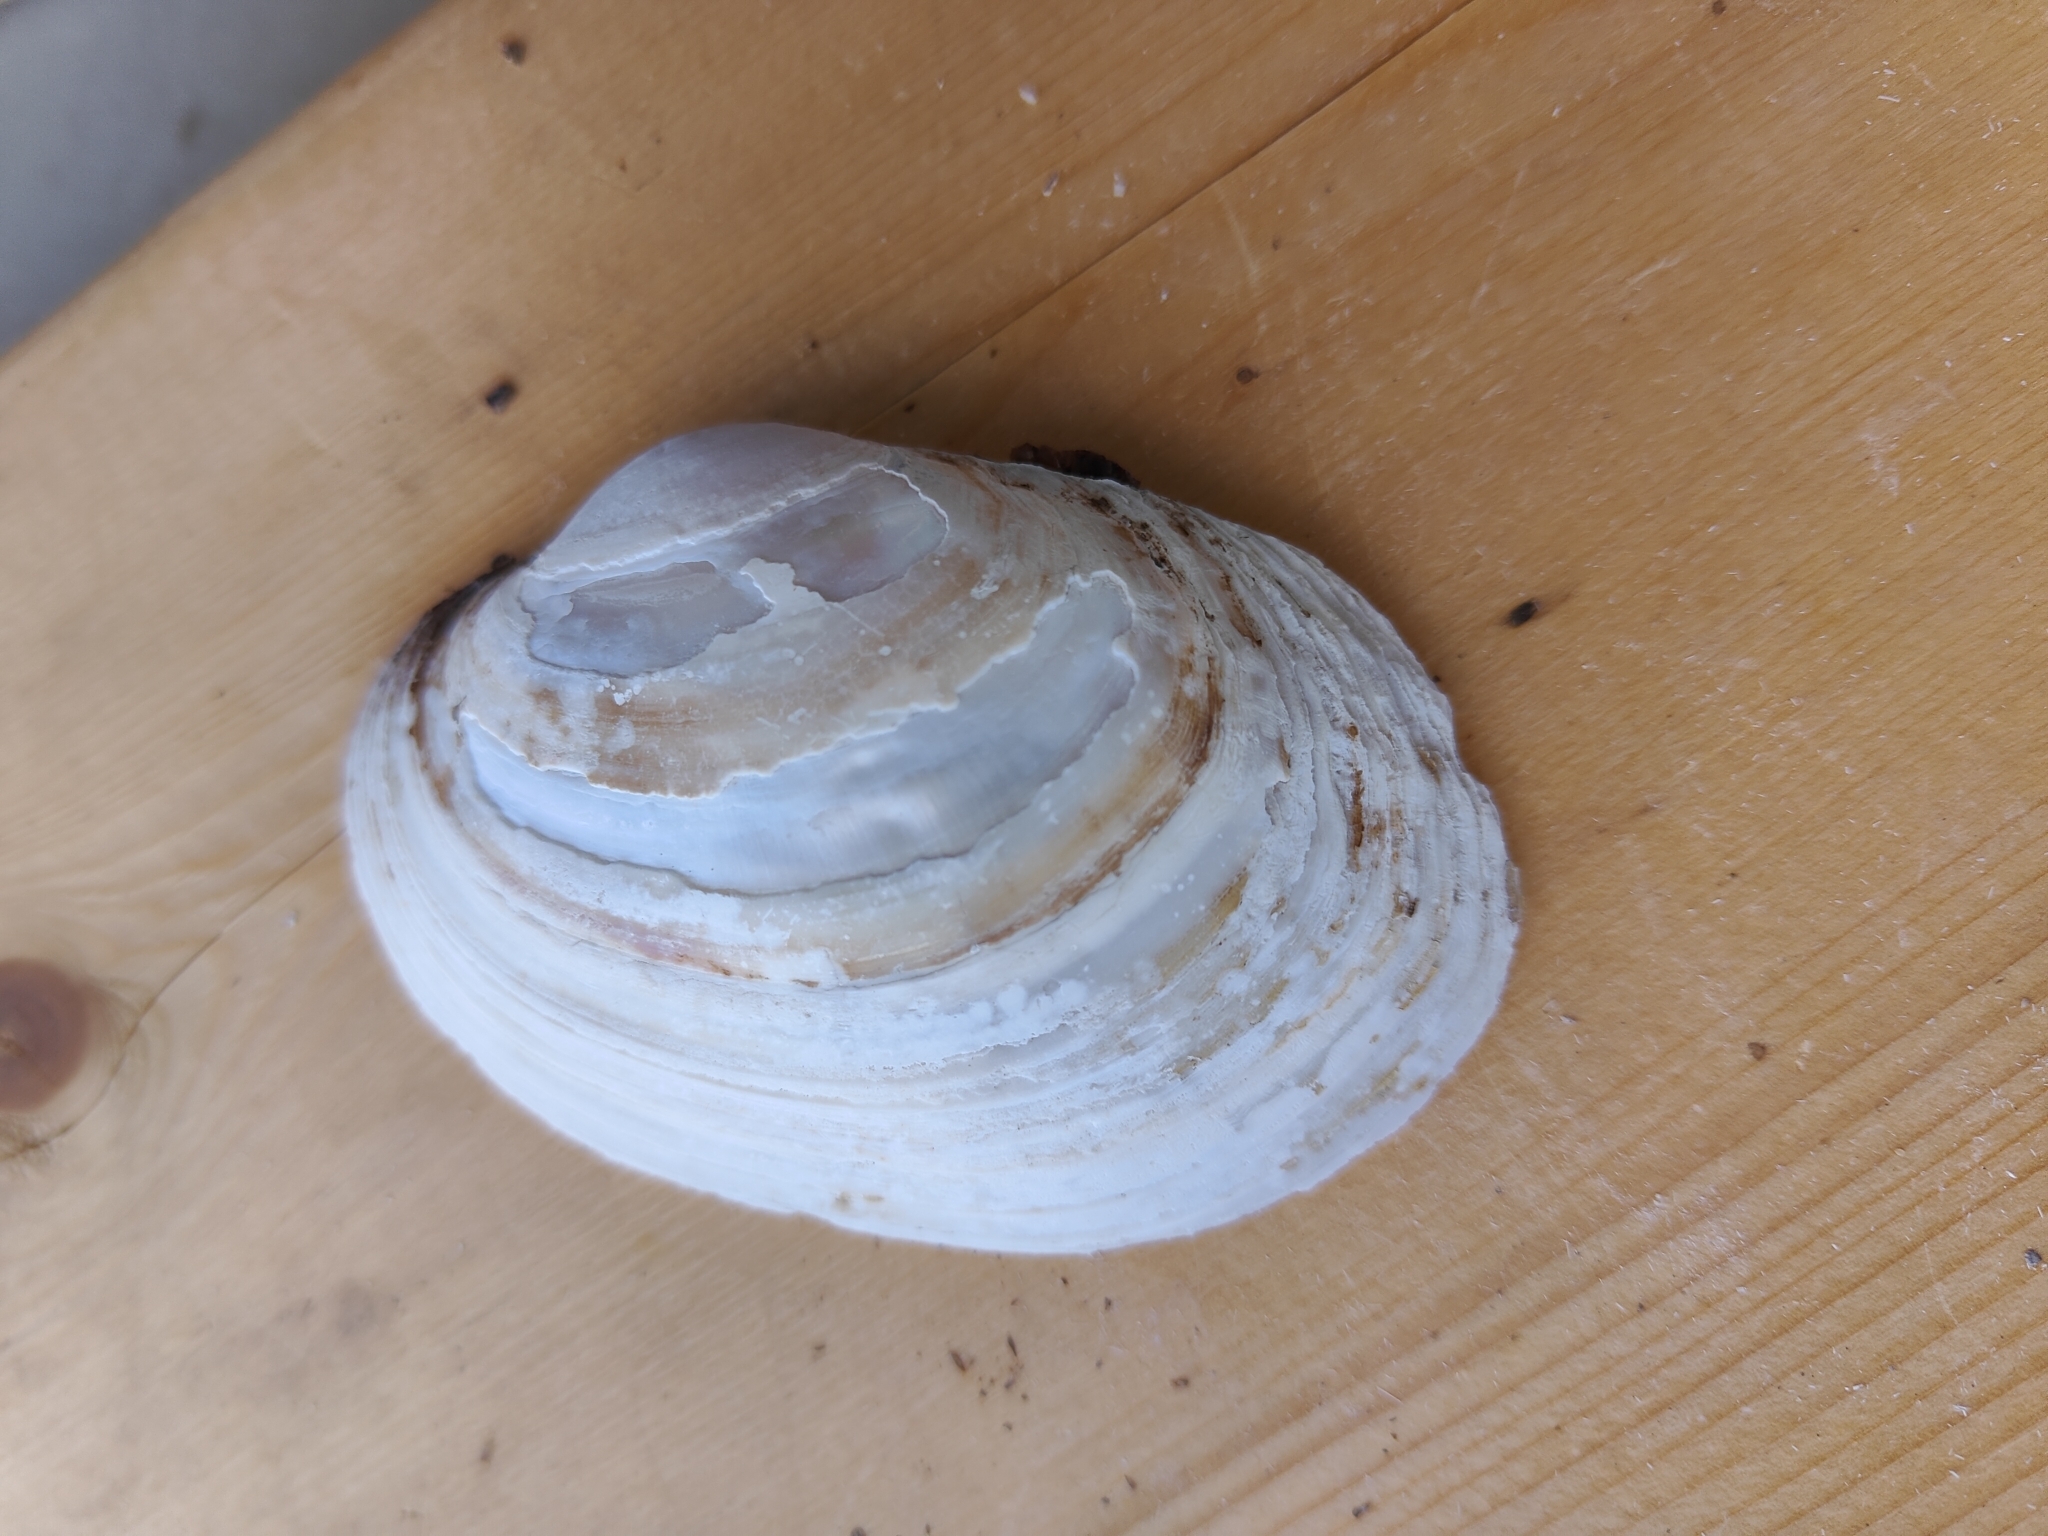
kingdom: Animalia
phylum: Mollusca
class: Bivalvia
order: Unionida
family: Unionidae
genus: Lampsilis
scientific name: Lampsilis cardium
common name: Plain pocketbook
